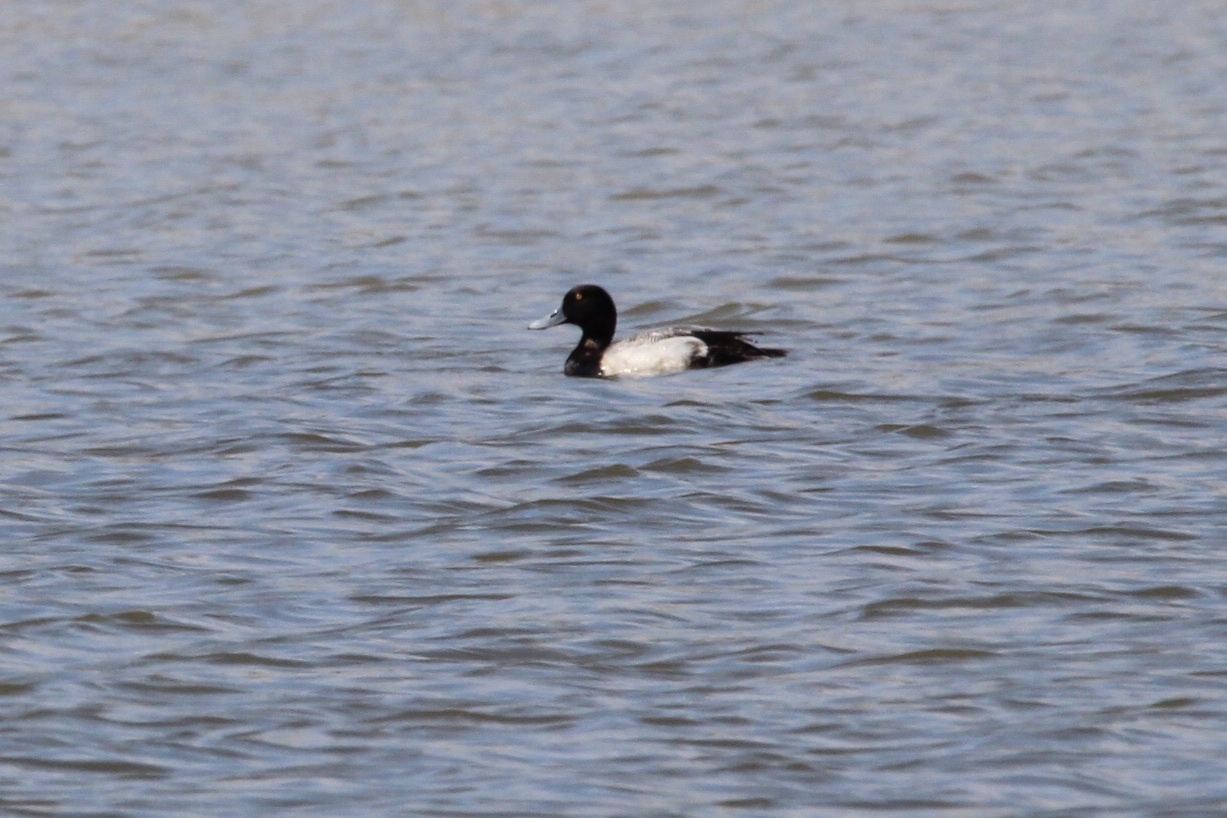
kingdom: Animalia
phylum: Chordata
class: Aves
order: Anseriformes
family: Anatidae
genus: Aythya
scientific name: Aythya marila
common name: Greater scaup
